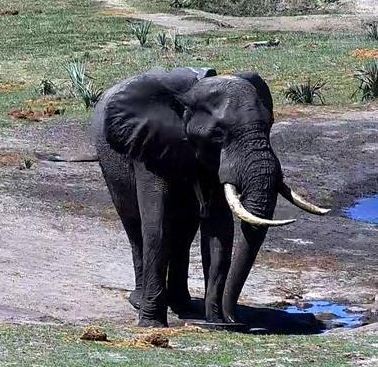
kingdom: Animalia
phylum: Chordata
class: Mammalia
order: Proboscidea
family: Elephantidae
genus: Loxodonta
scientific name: Loxodonta africana
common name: African elephant
